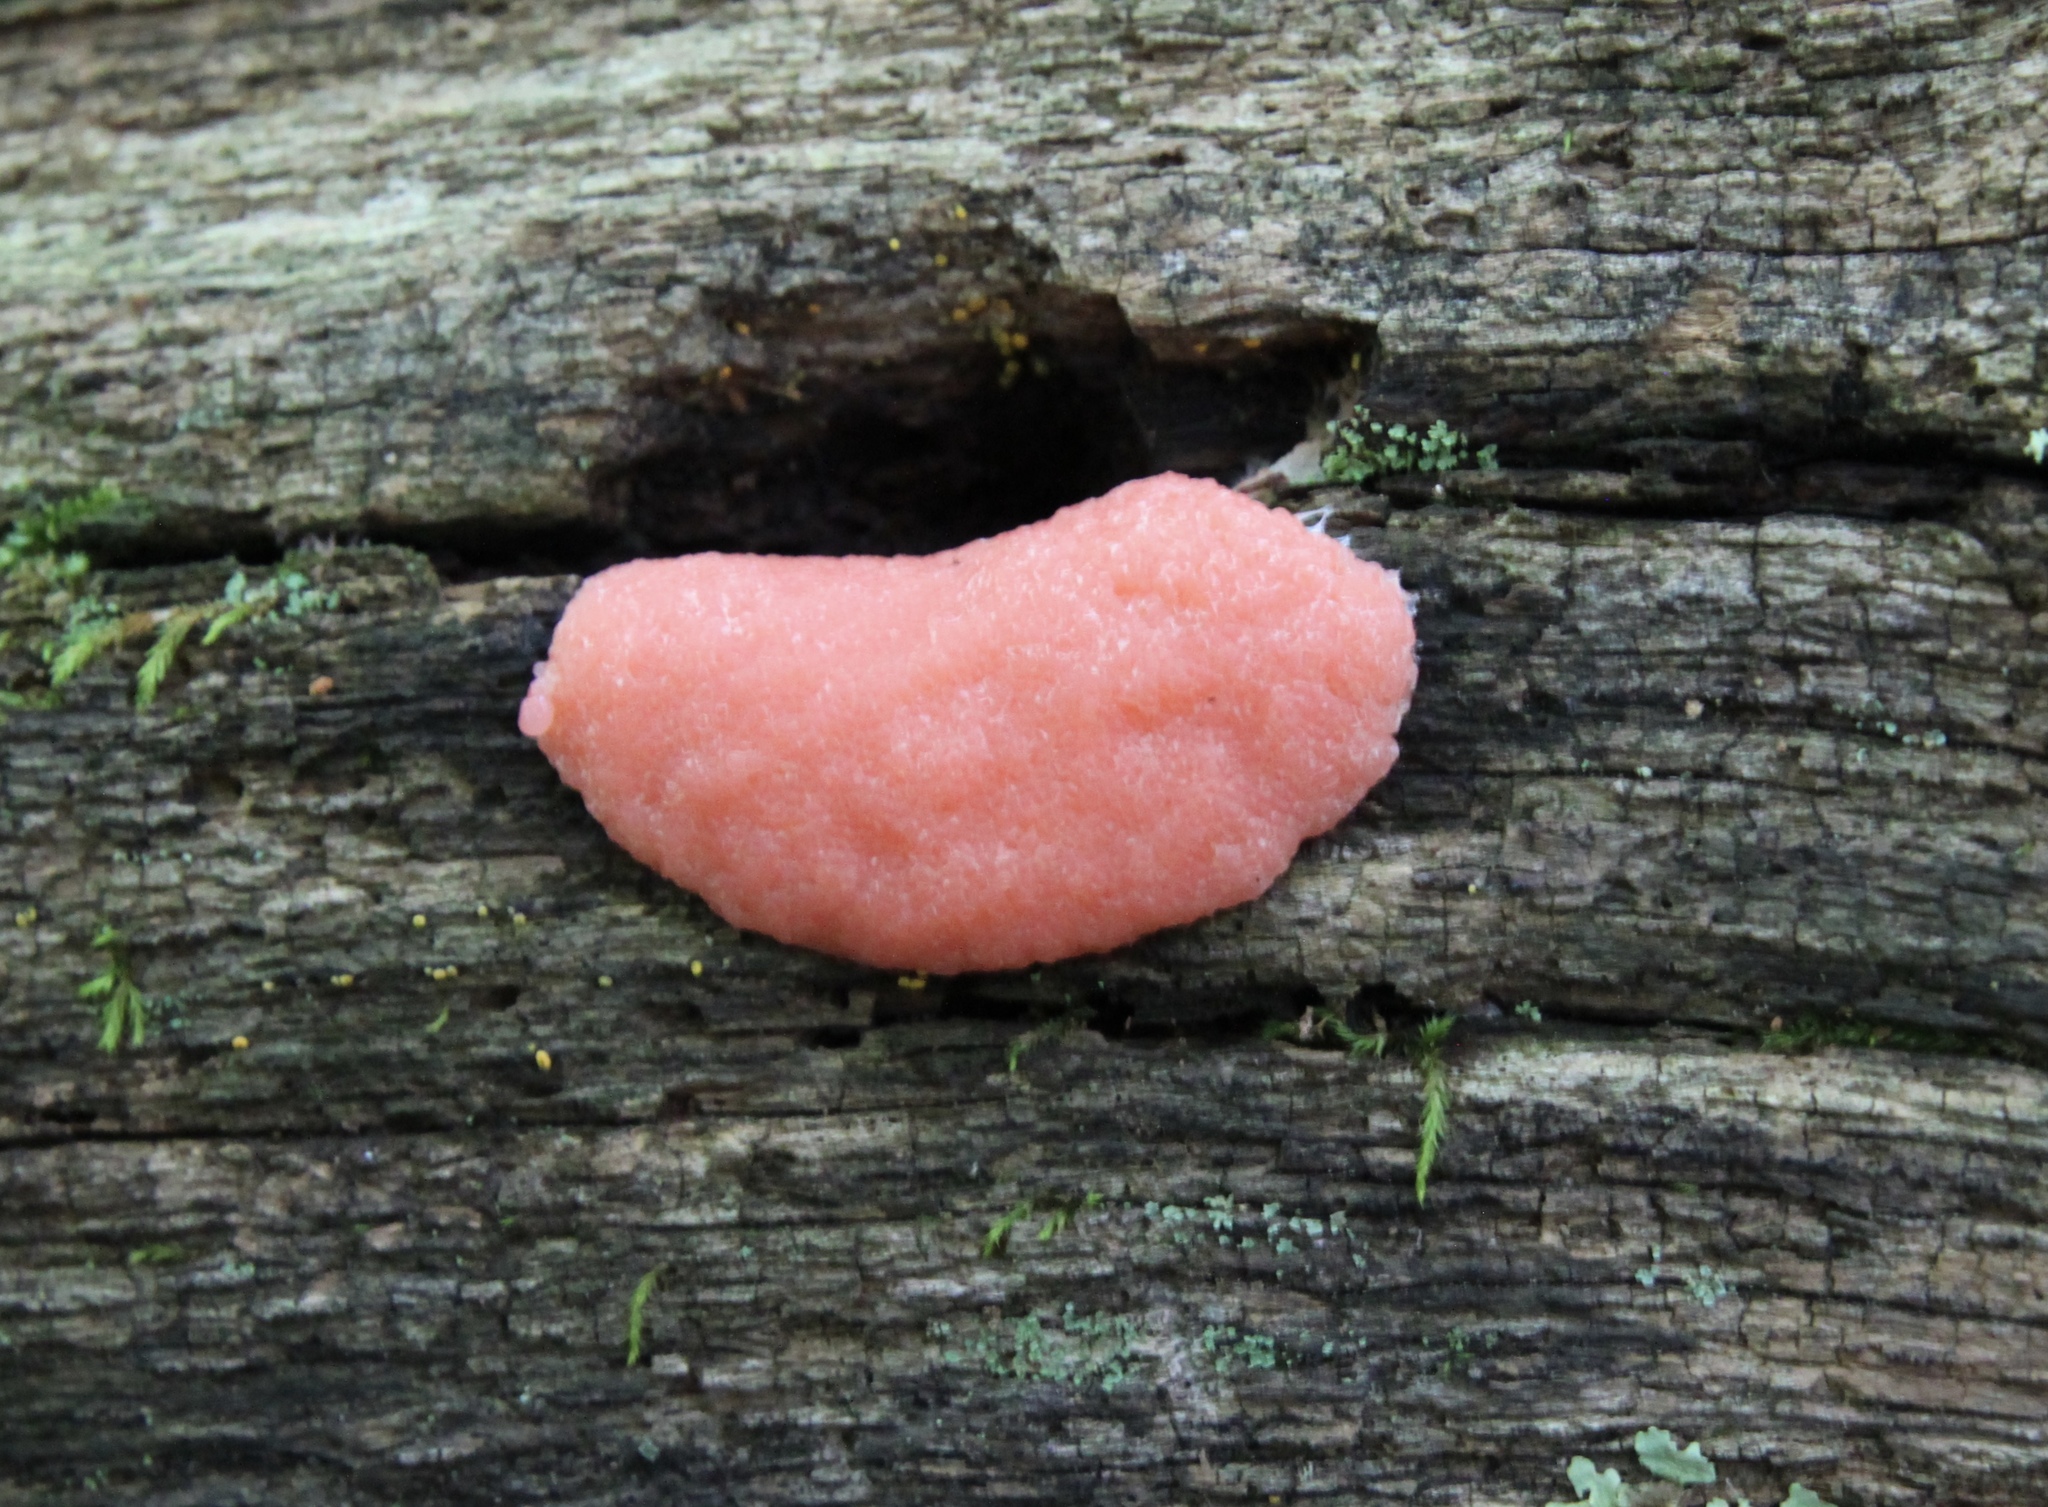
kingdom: Protozoa
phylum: Mycetozoa
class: Myxomycetes
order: Cribrariales
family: Tubiferaceae
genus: Tubifera
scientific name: Tubifera ferruginosa
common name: Red raspberry slime mold
